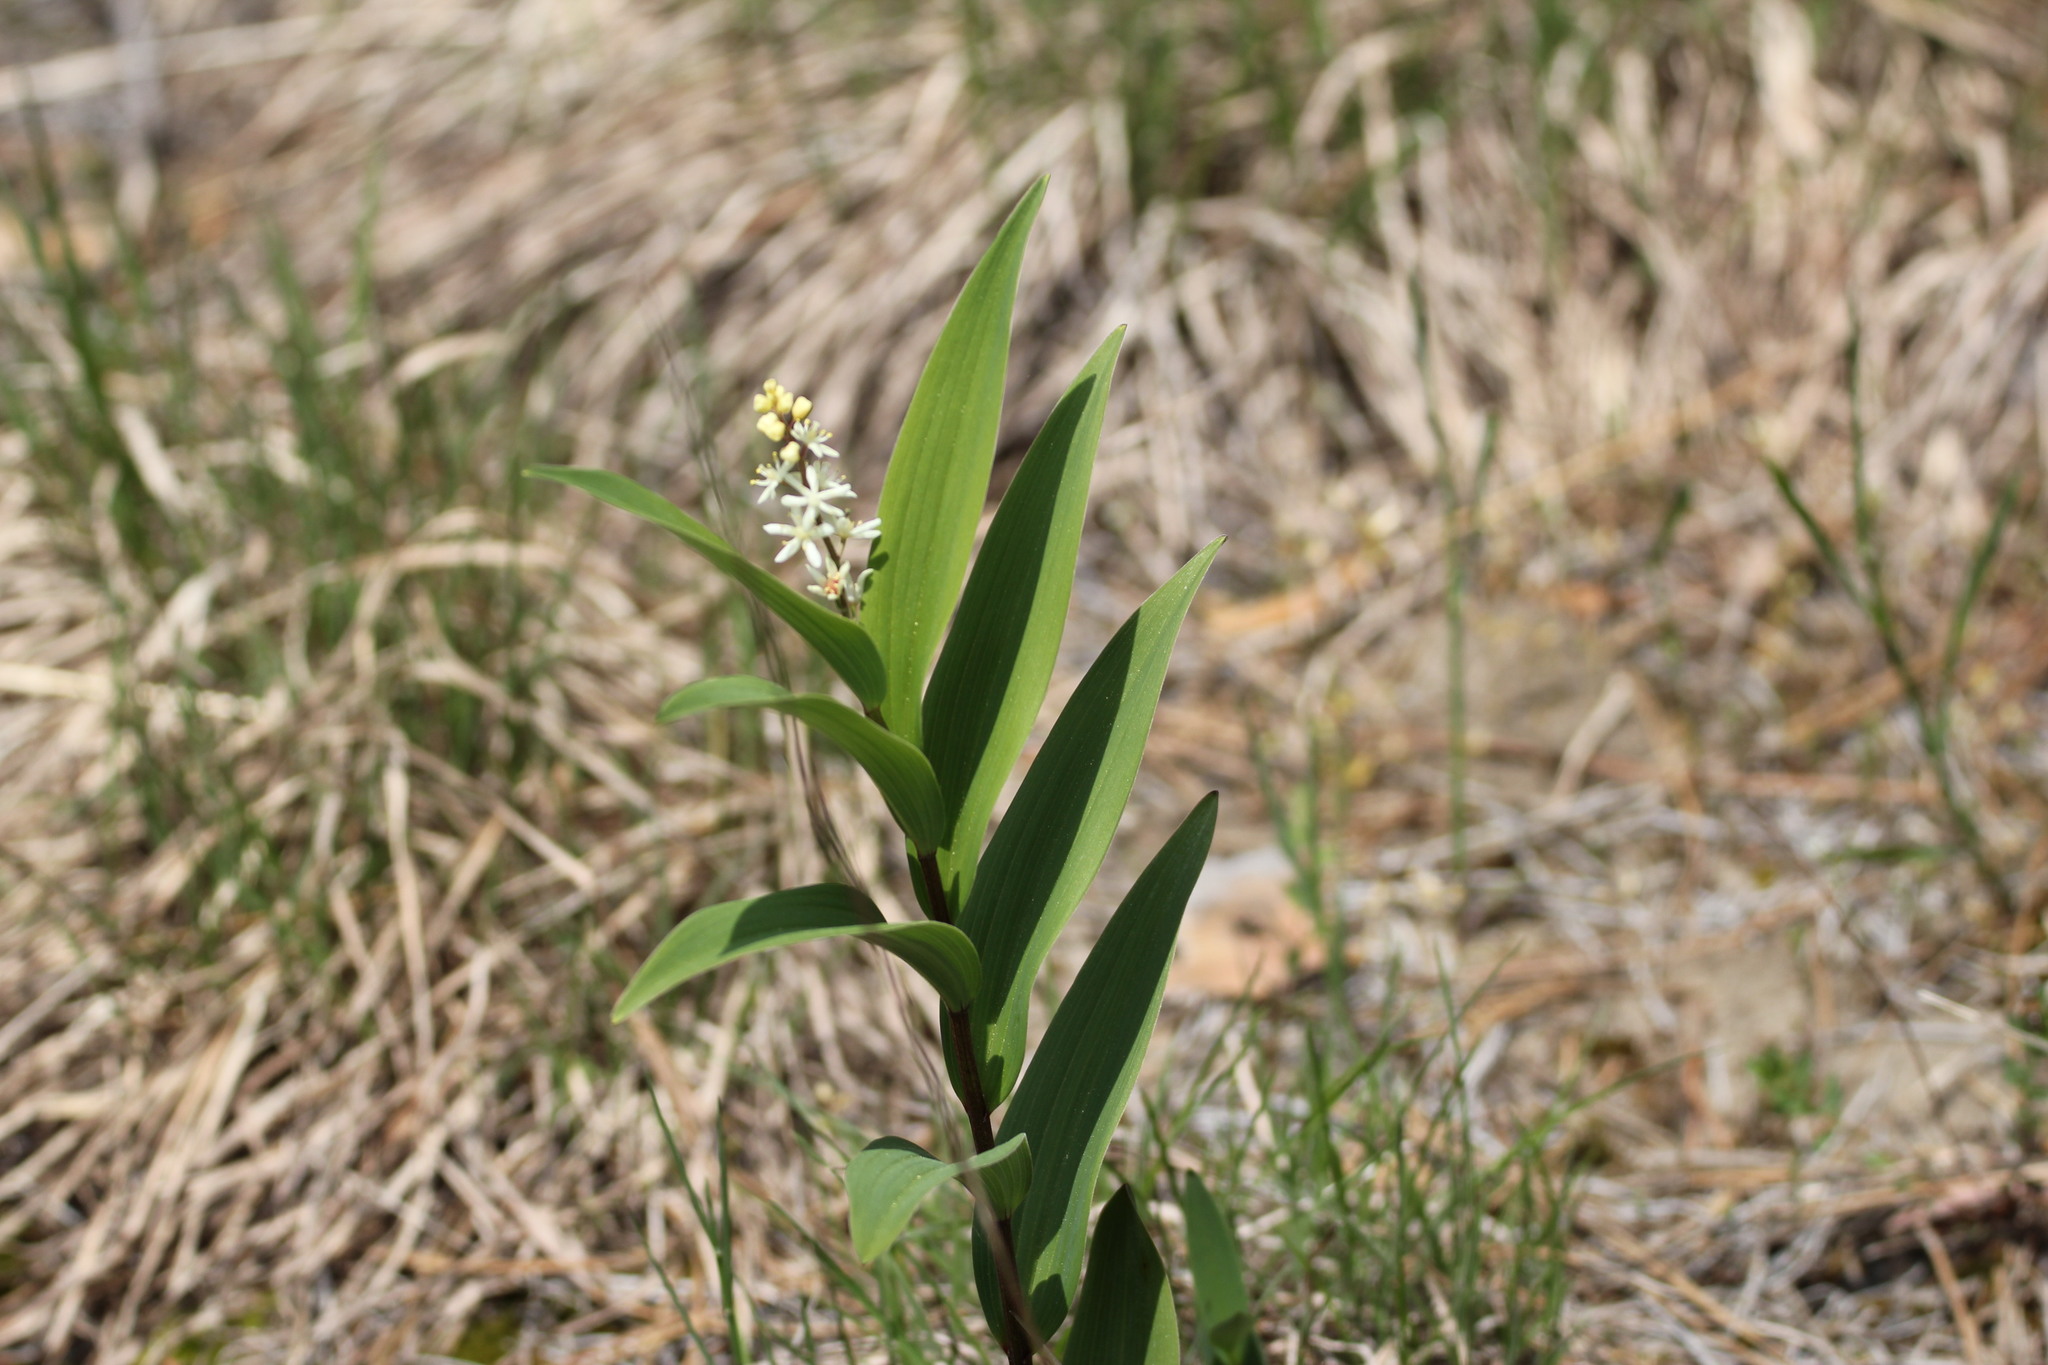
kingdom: Plantae
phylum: Tracheophyta
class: Liliopsida
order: Asparagales
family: Asparagaceae
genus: Maianthemum
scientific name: Maianthemum stellatum
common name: Little false solomon's seal
